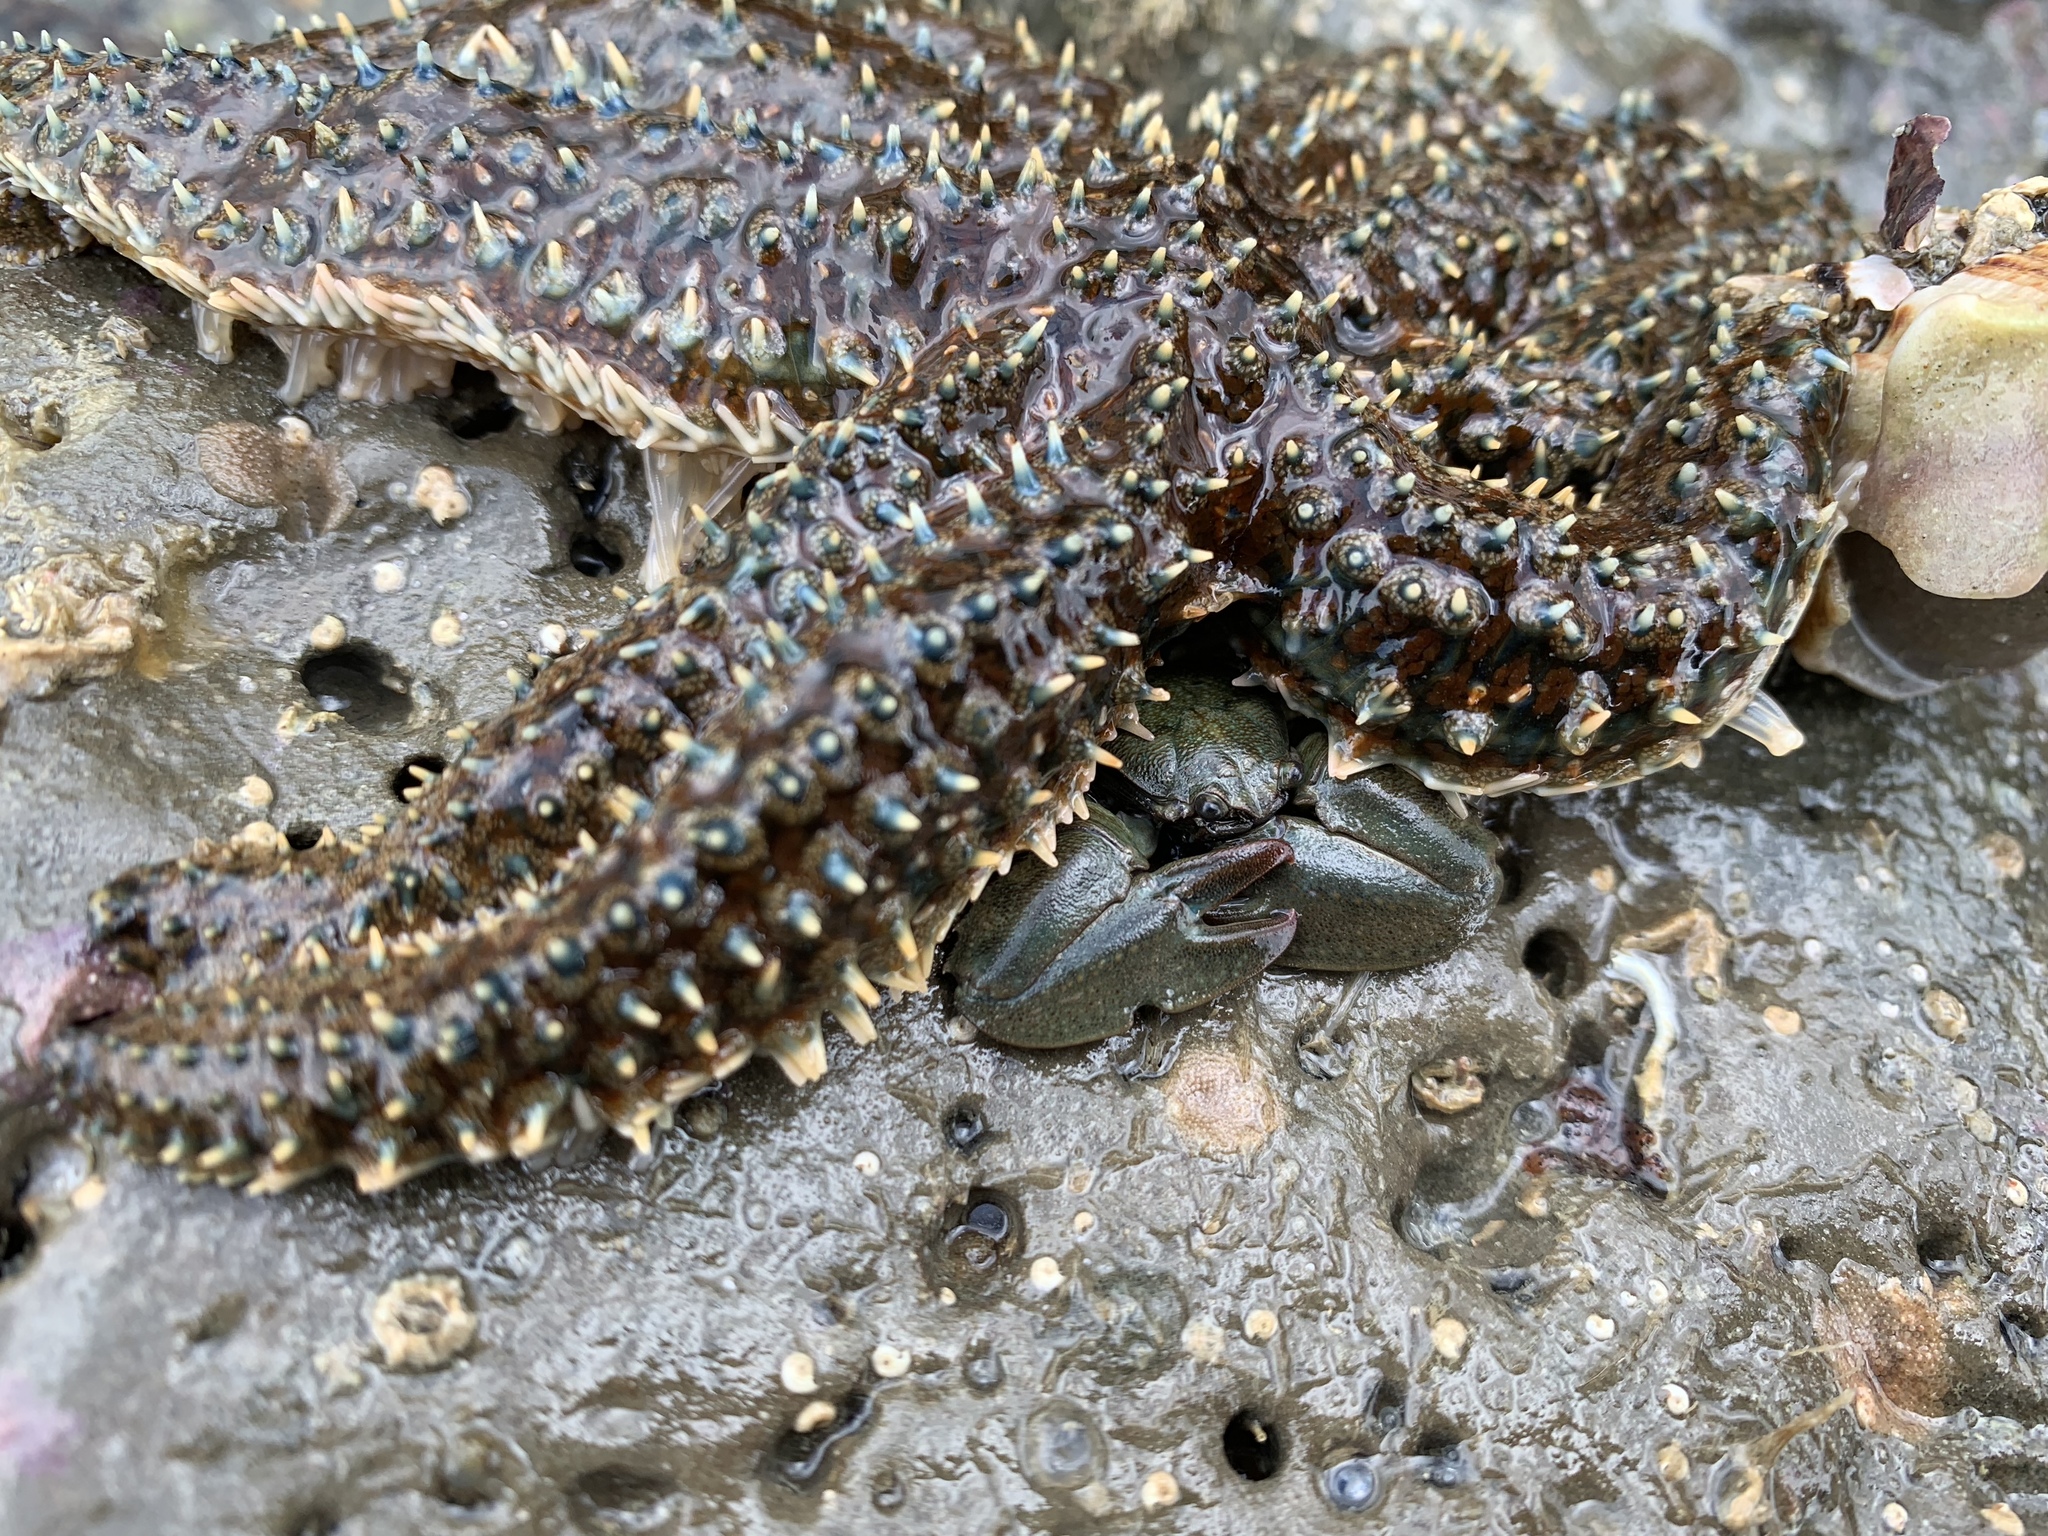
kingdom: Animalia
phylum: Arthropoda
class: Malacostraca
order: Decapoda
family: Porcellanidae
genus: Petrolisthes
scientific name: Petrolisthes elongatus
